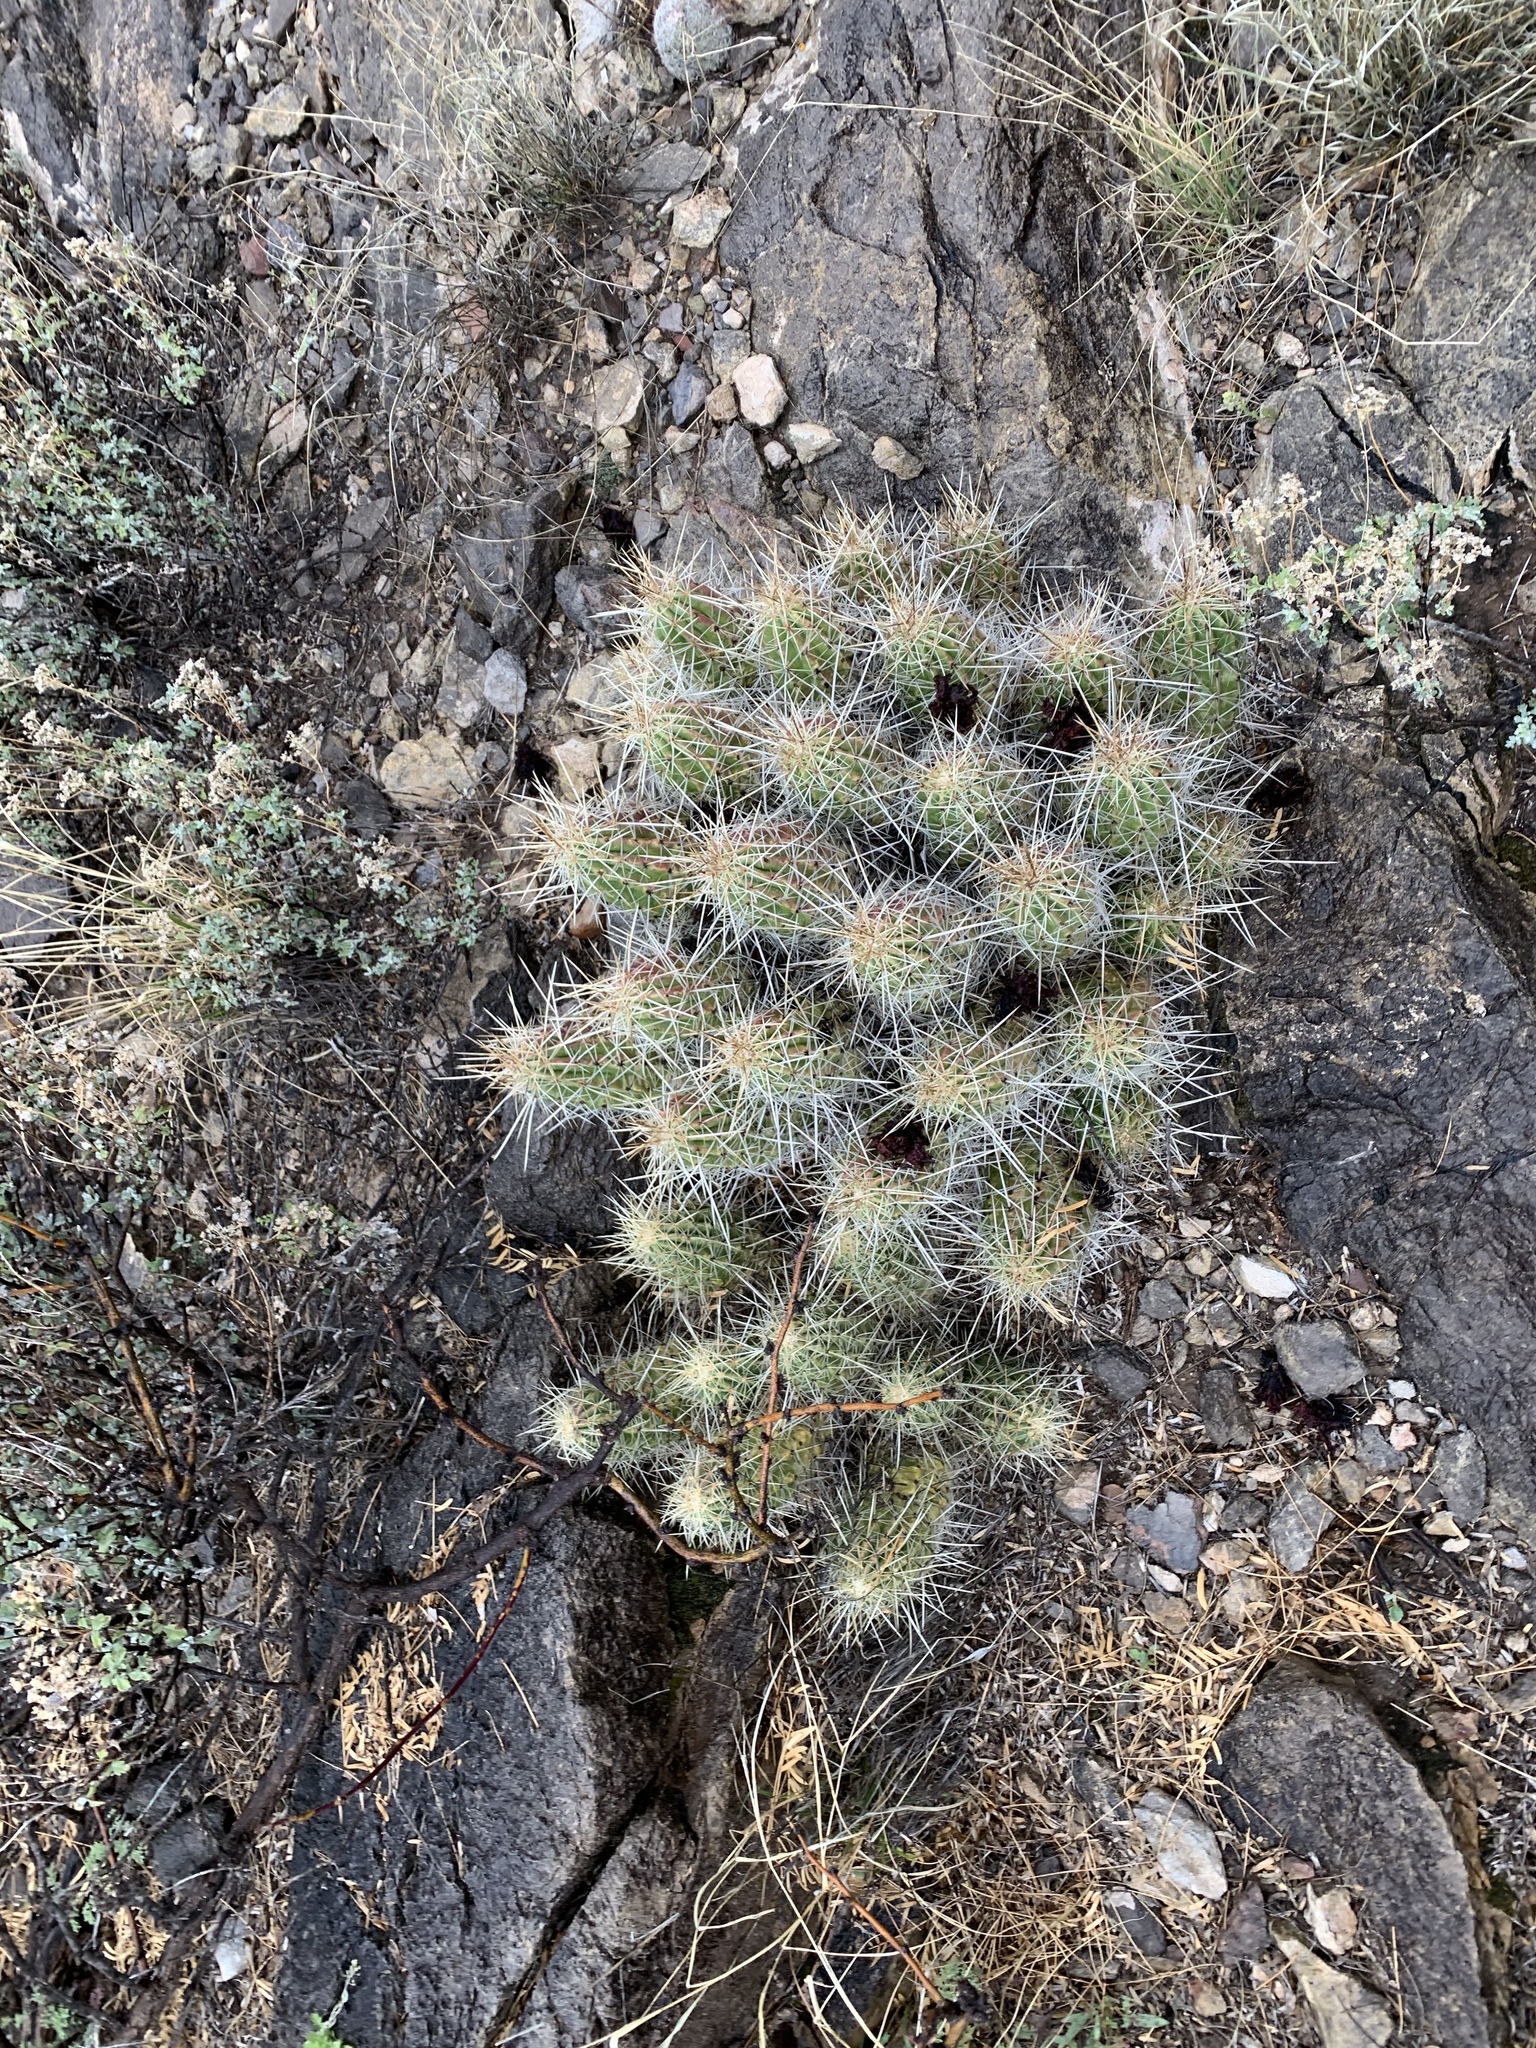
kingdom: Plantae
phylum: Tracheophyta
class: Magnoliopsida
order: Caryophyllales
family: Cactaceae
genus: Echinocereus
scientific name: Echinocereus stramineus
